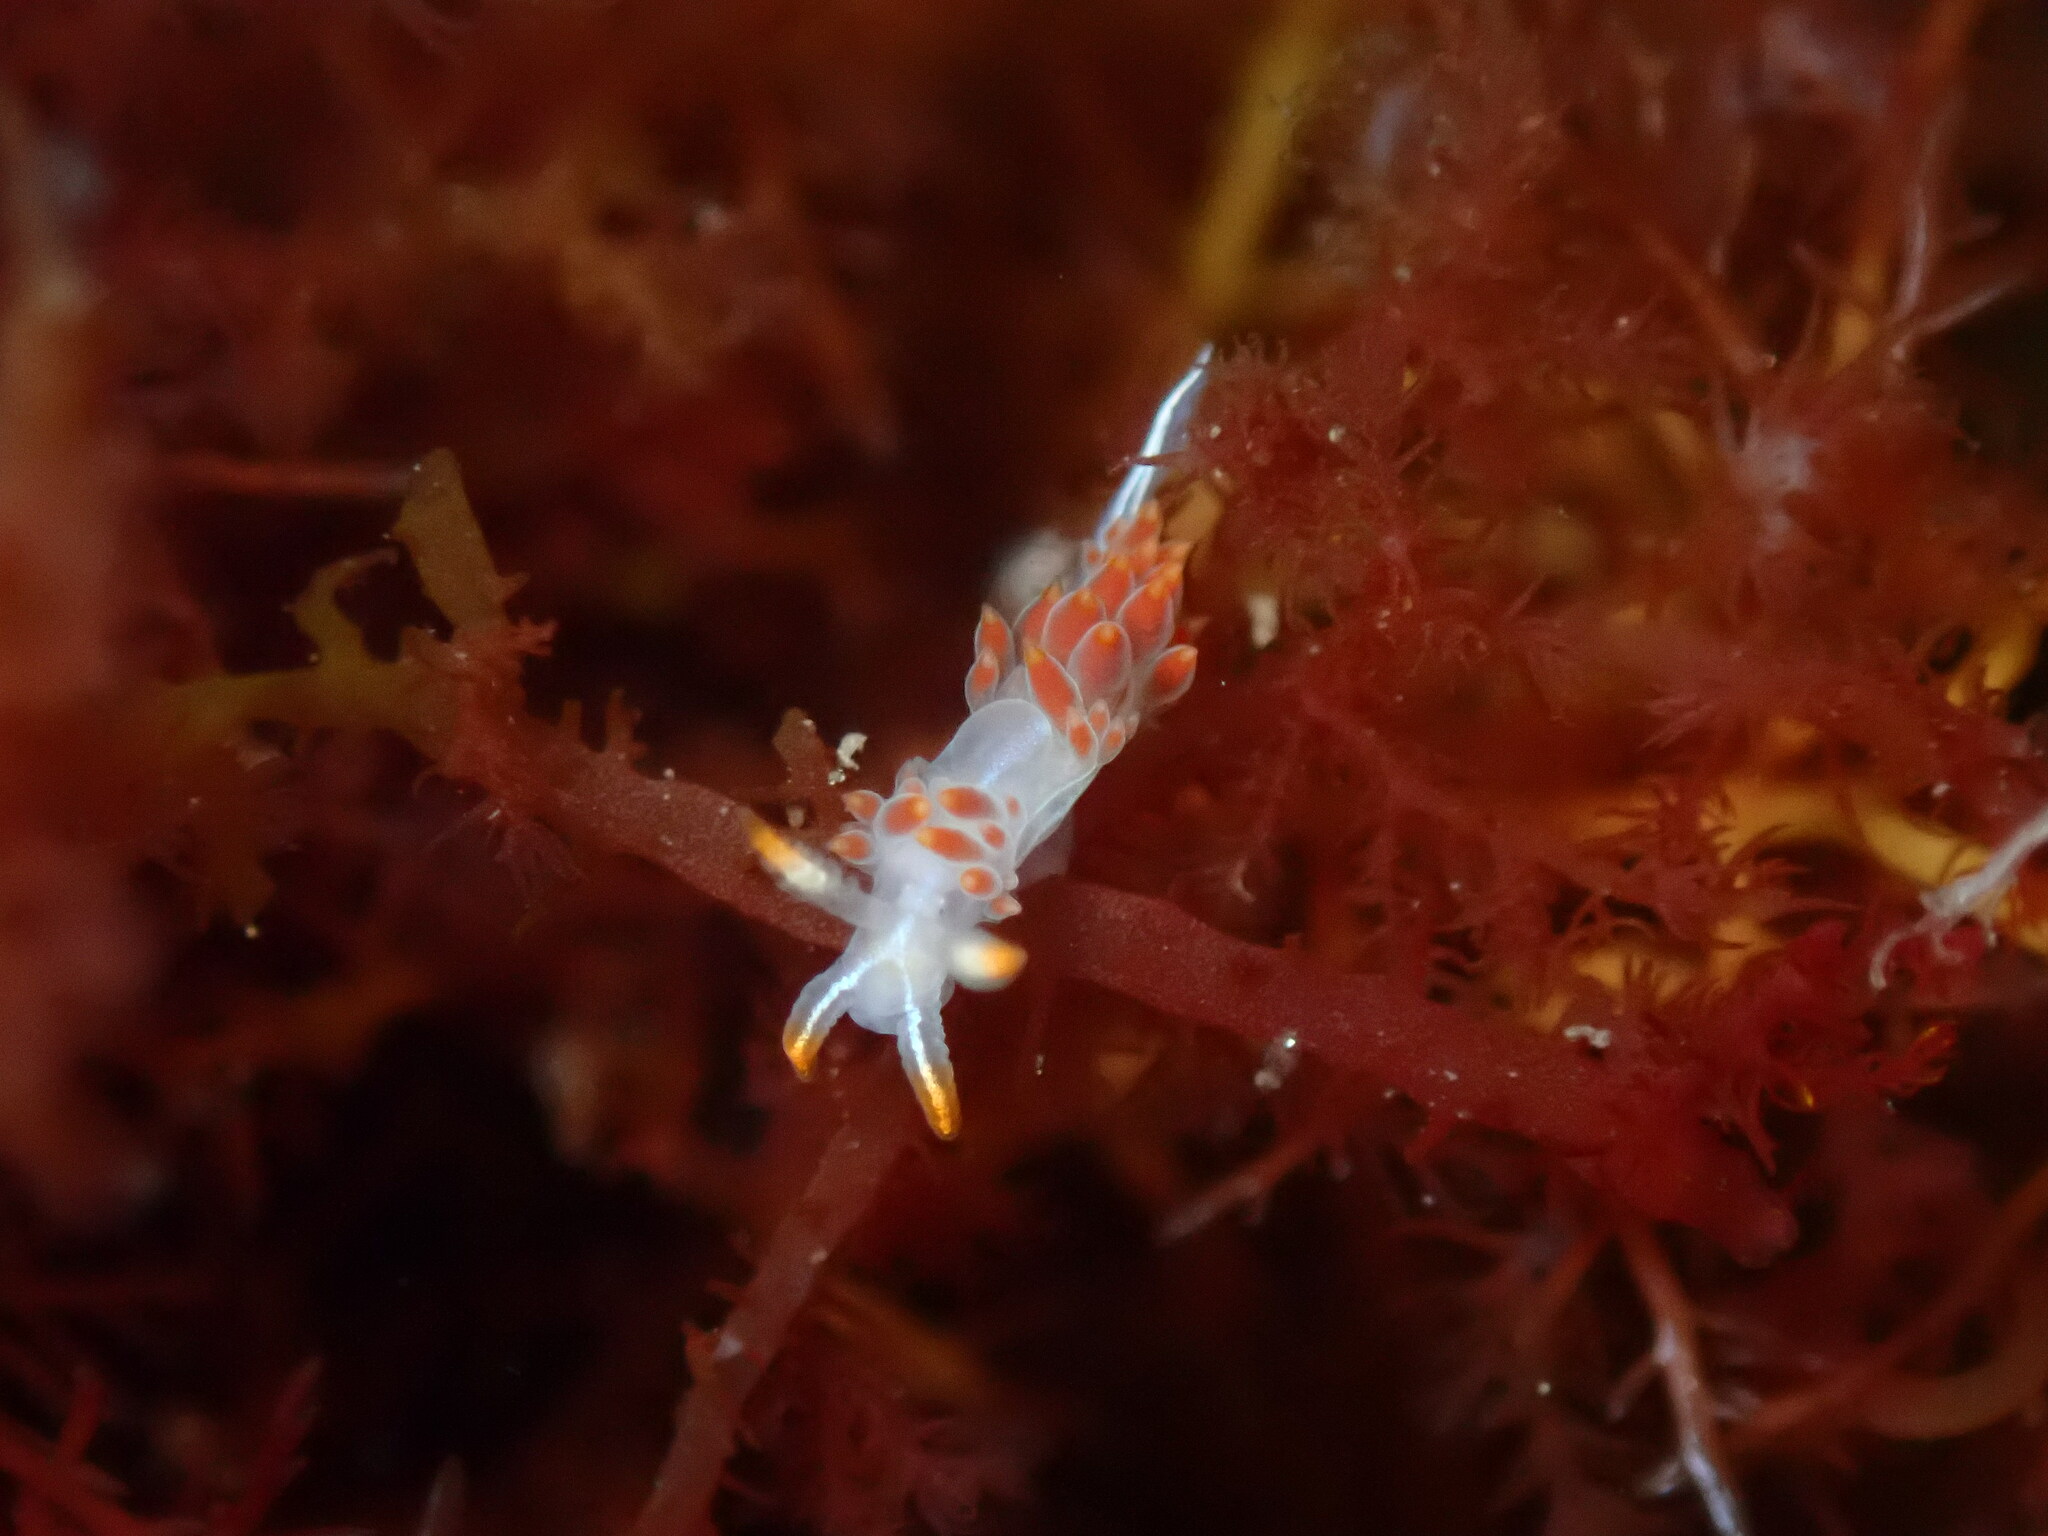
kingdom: Animalia
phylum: Mollusca
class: Gastropoda
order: Nudibranchia
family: Coryphellidae
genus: Coryphella
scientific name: Coryphella trilineata
